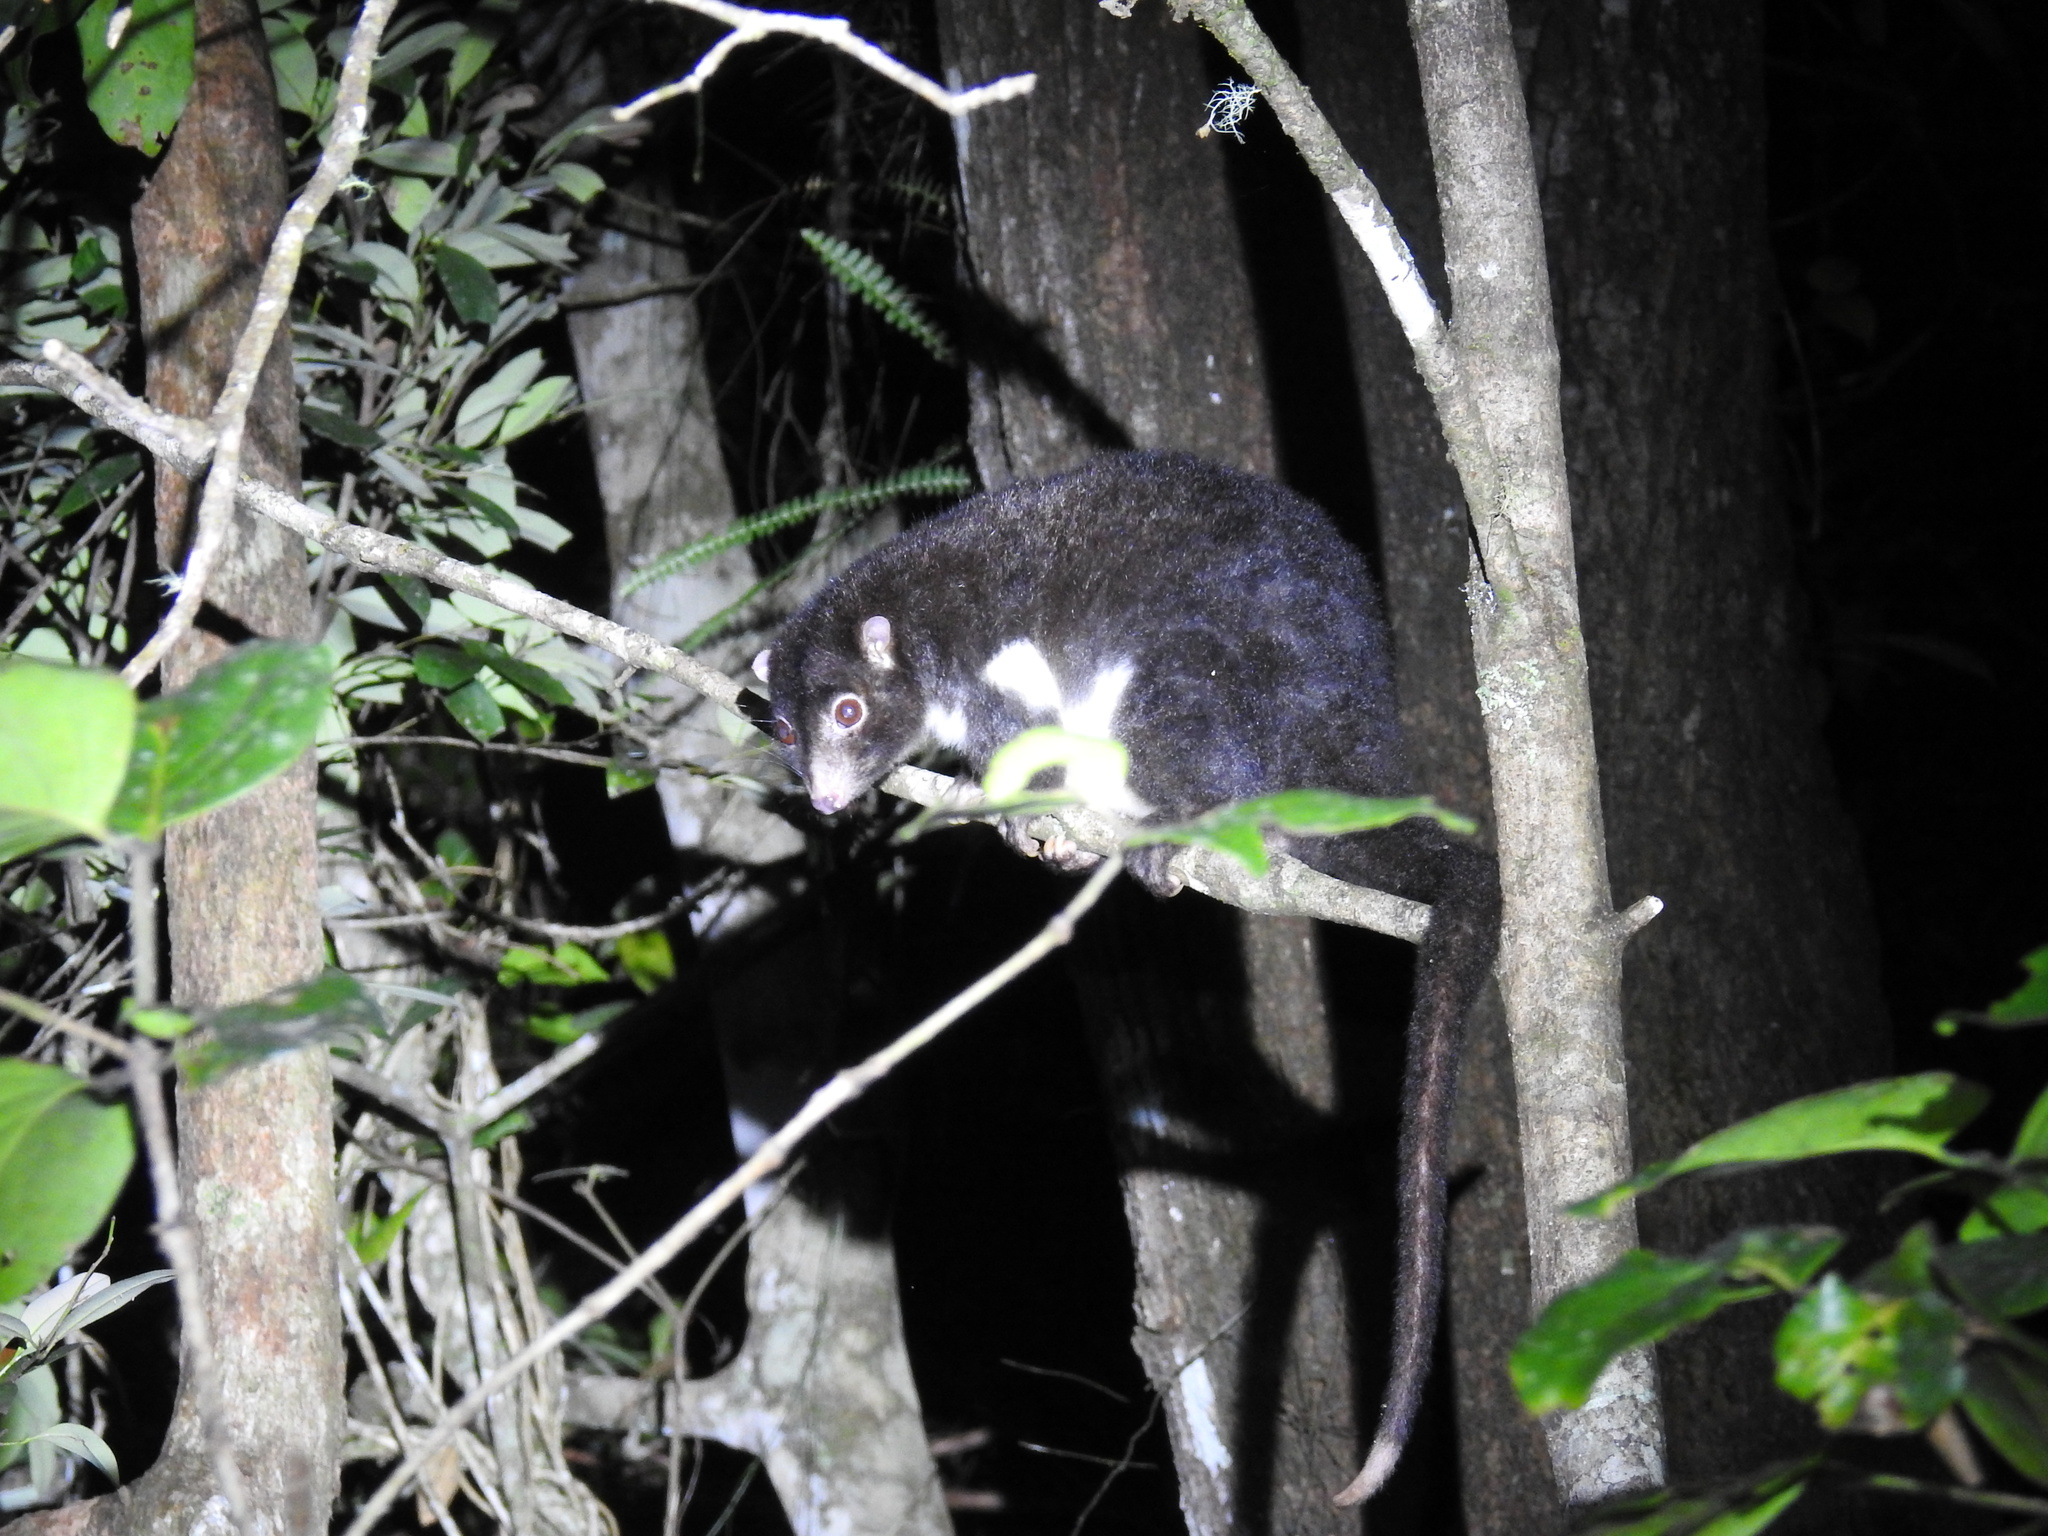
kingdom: Animalia
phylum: Chordata
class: Mammalia
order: Diprotodontia
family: Pseudocheiridae
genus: Pseudochirulus
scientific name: Pseudochirulus herbertensis
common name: Herbert river ringtail
